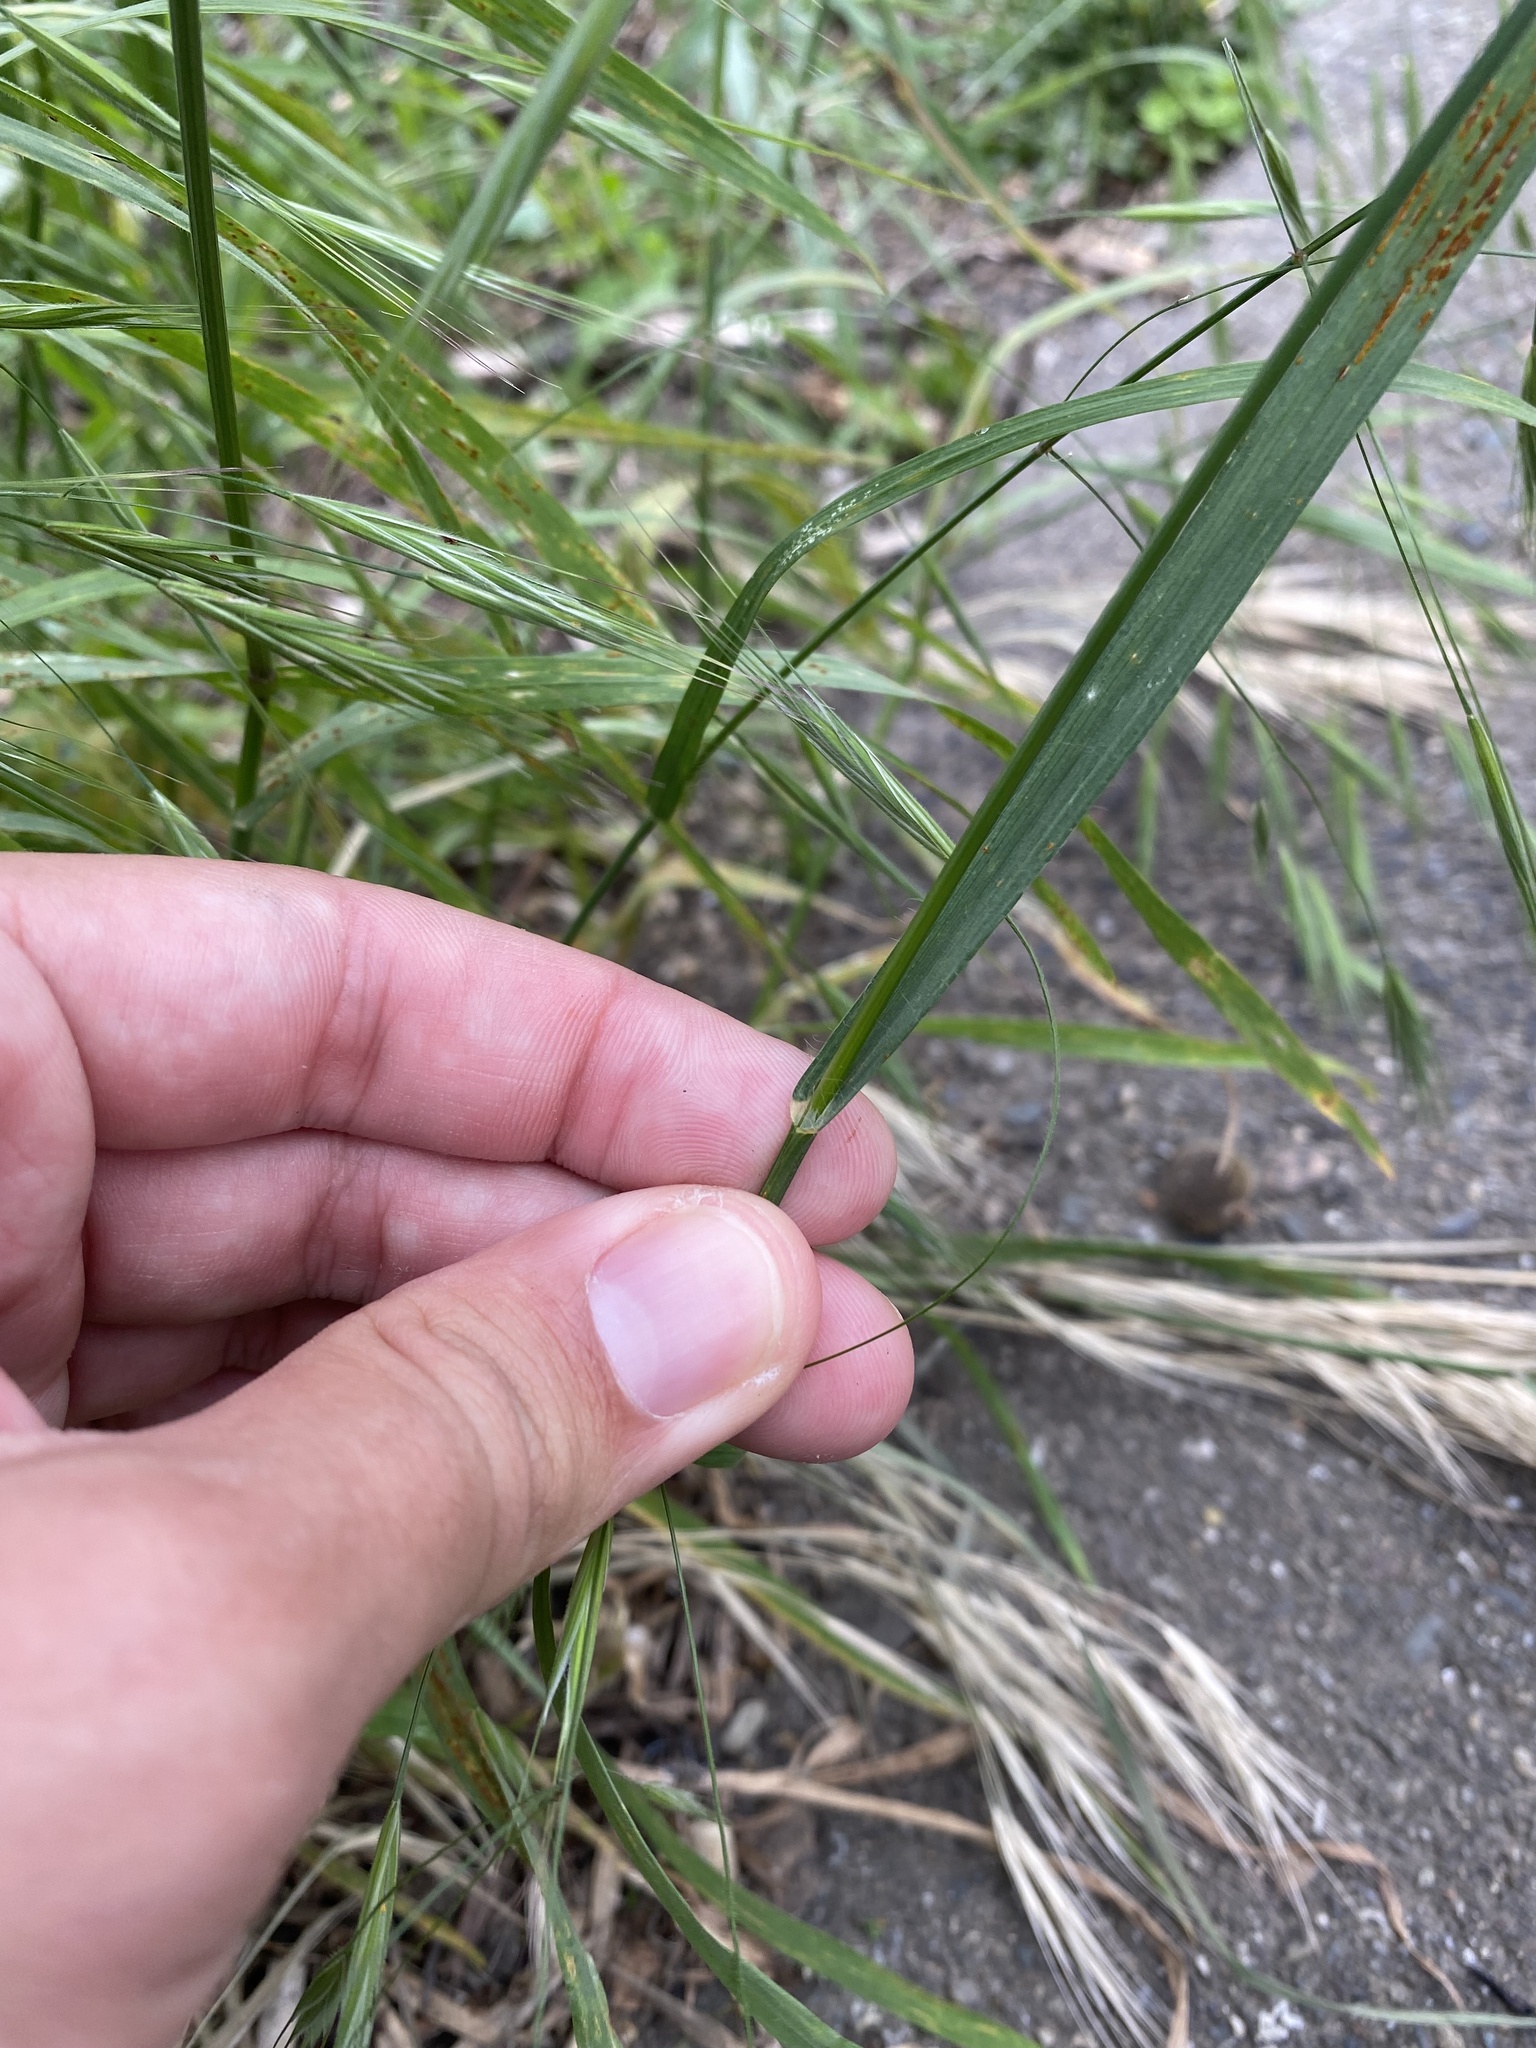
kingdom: Plantae
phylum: Tracheophyta
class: Liliopsida
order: Poales
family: Poaceae
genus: Bromus
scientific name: Bromus sterilis
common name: Poverty brome
